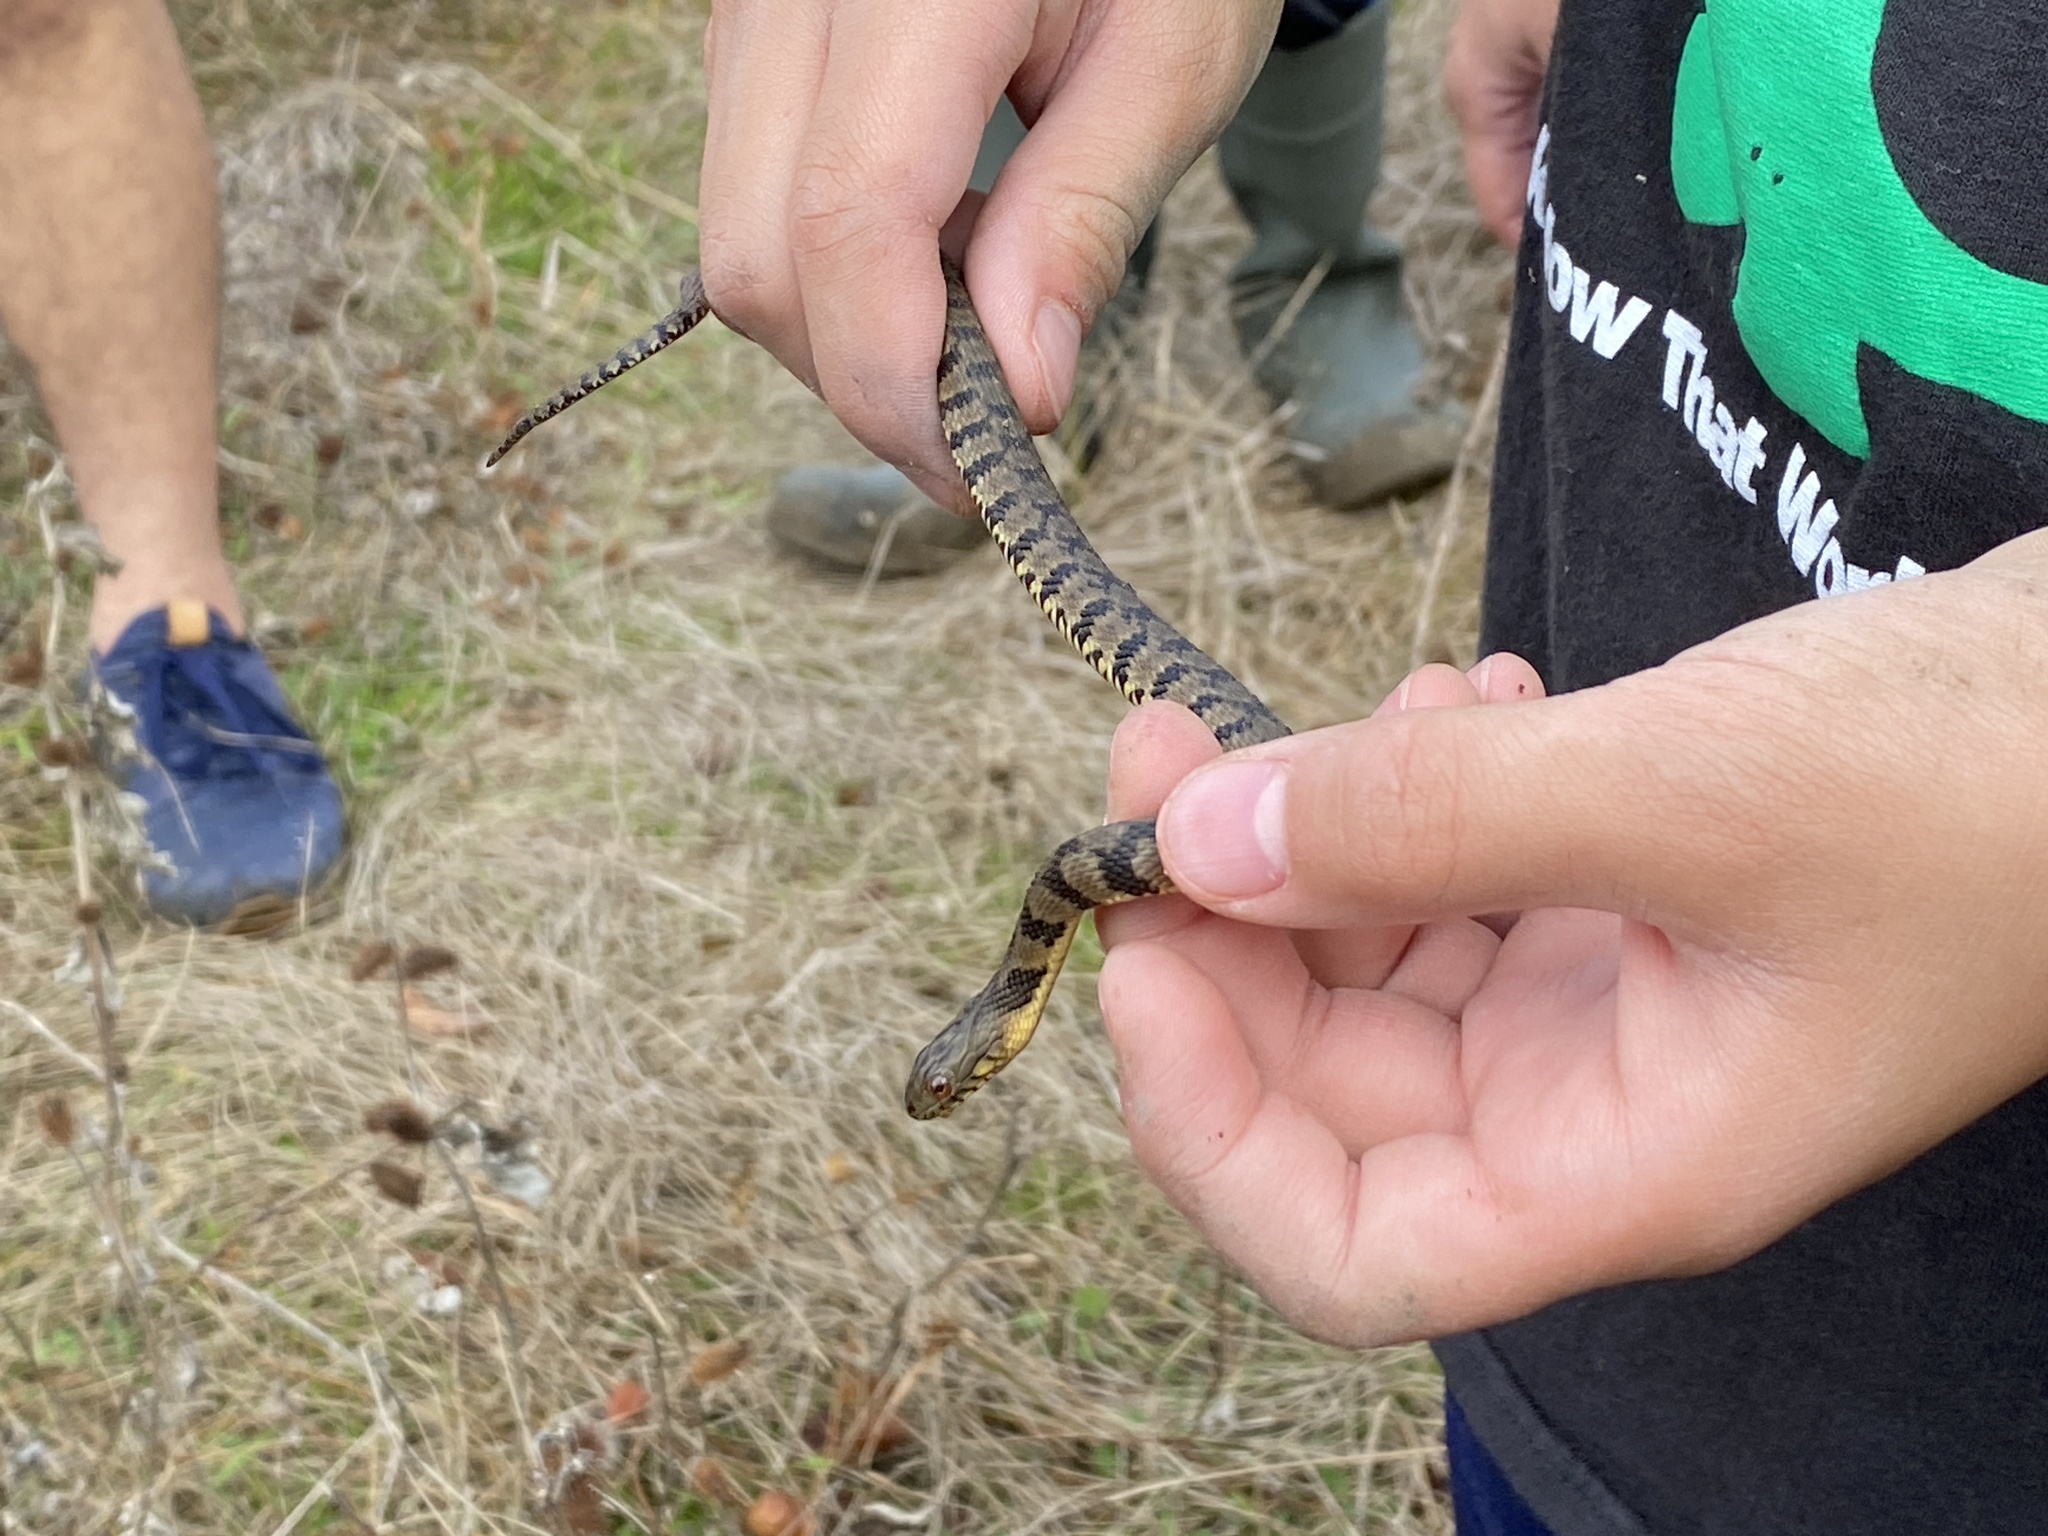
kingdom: Animalia
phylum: Chordata
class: Squamata
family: Colubridae
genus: Nerodia
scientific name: Nerodia rhombifer
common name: Diamondback water snake
